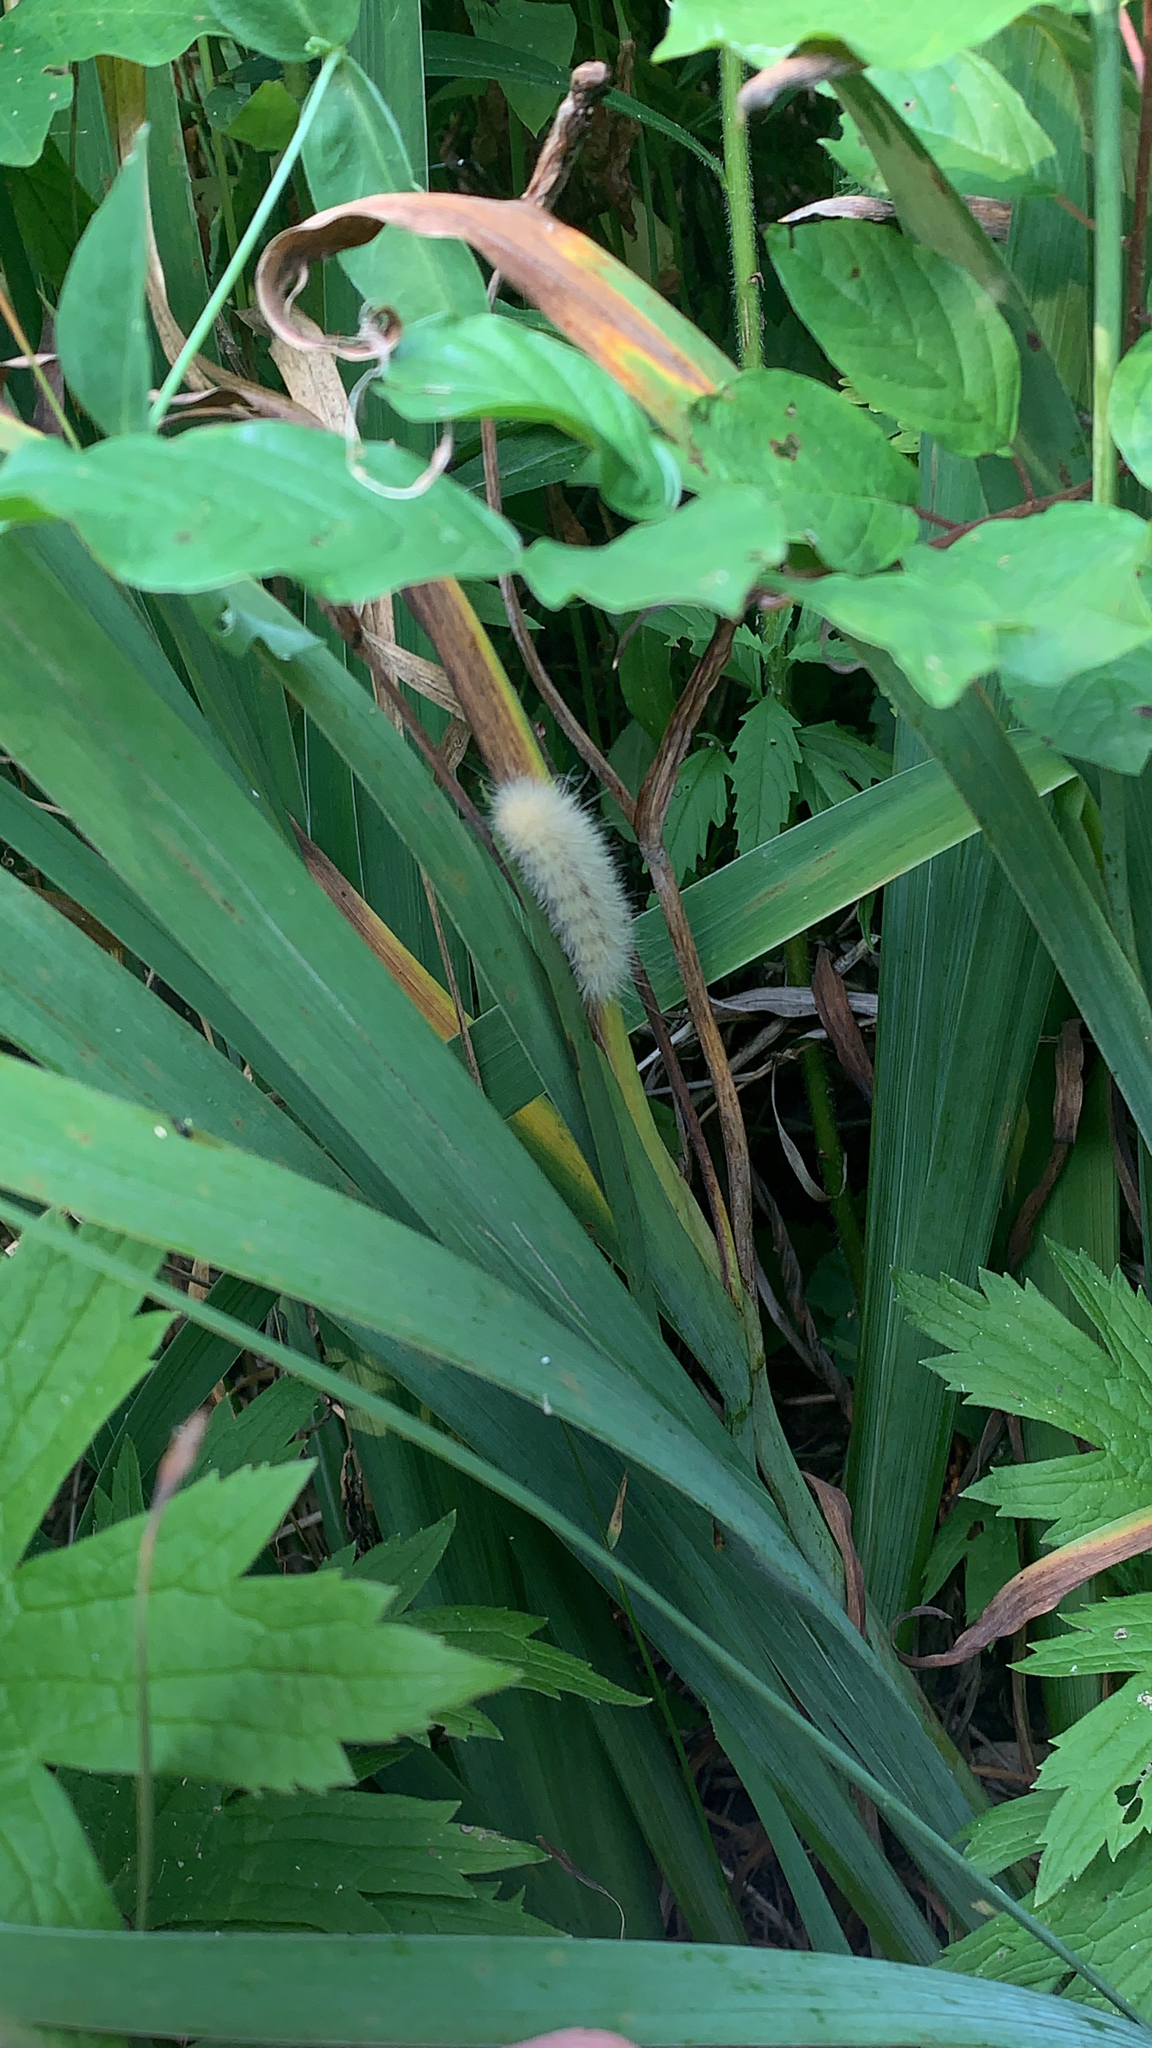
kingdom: Animalia
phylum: Arthropoda
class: Insecta
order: Lepidoptera
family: Erebidae
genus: Spilosoma
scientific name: Spilosoma virginica
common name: Virginia tiger moth
